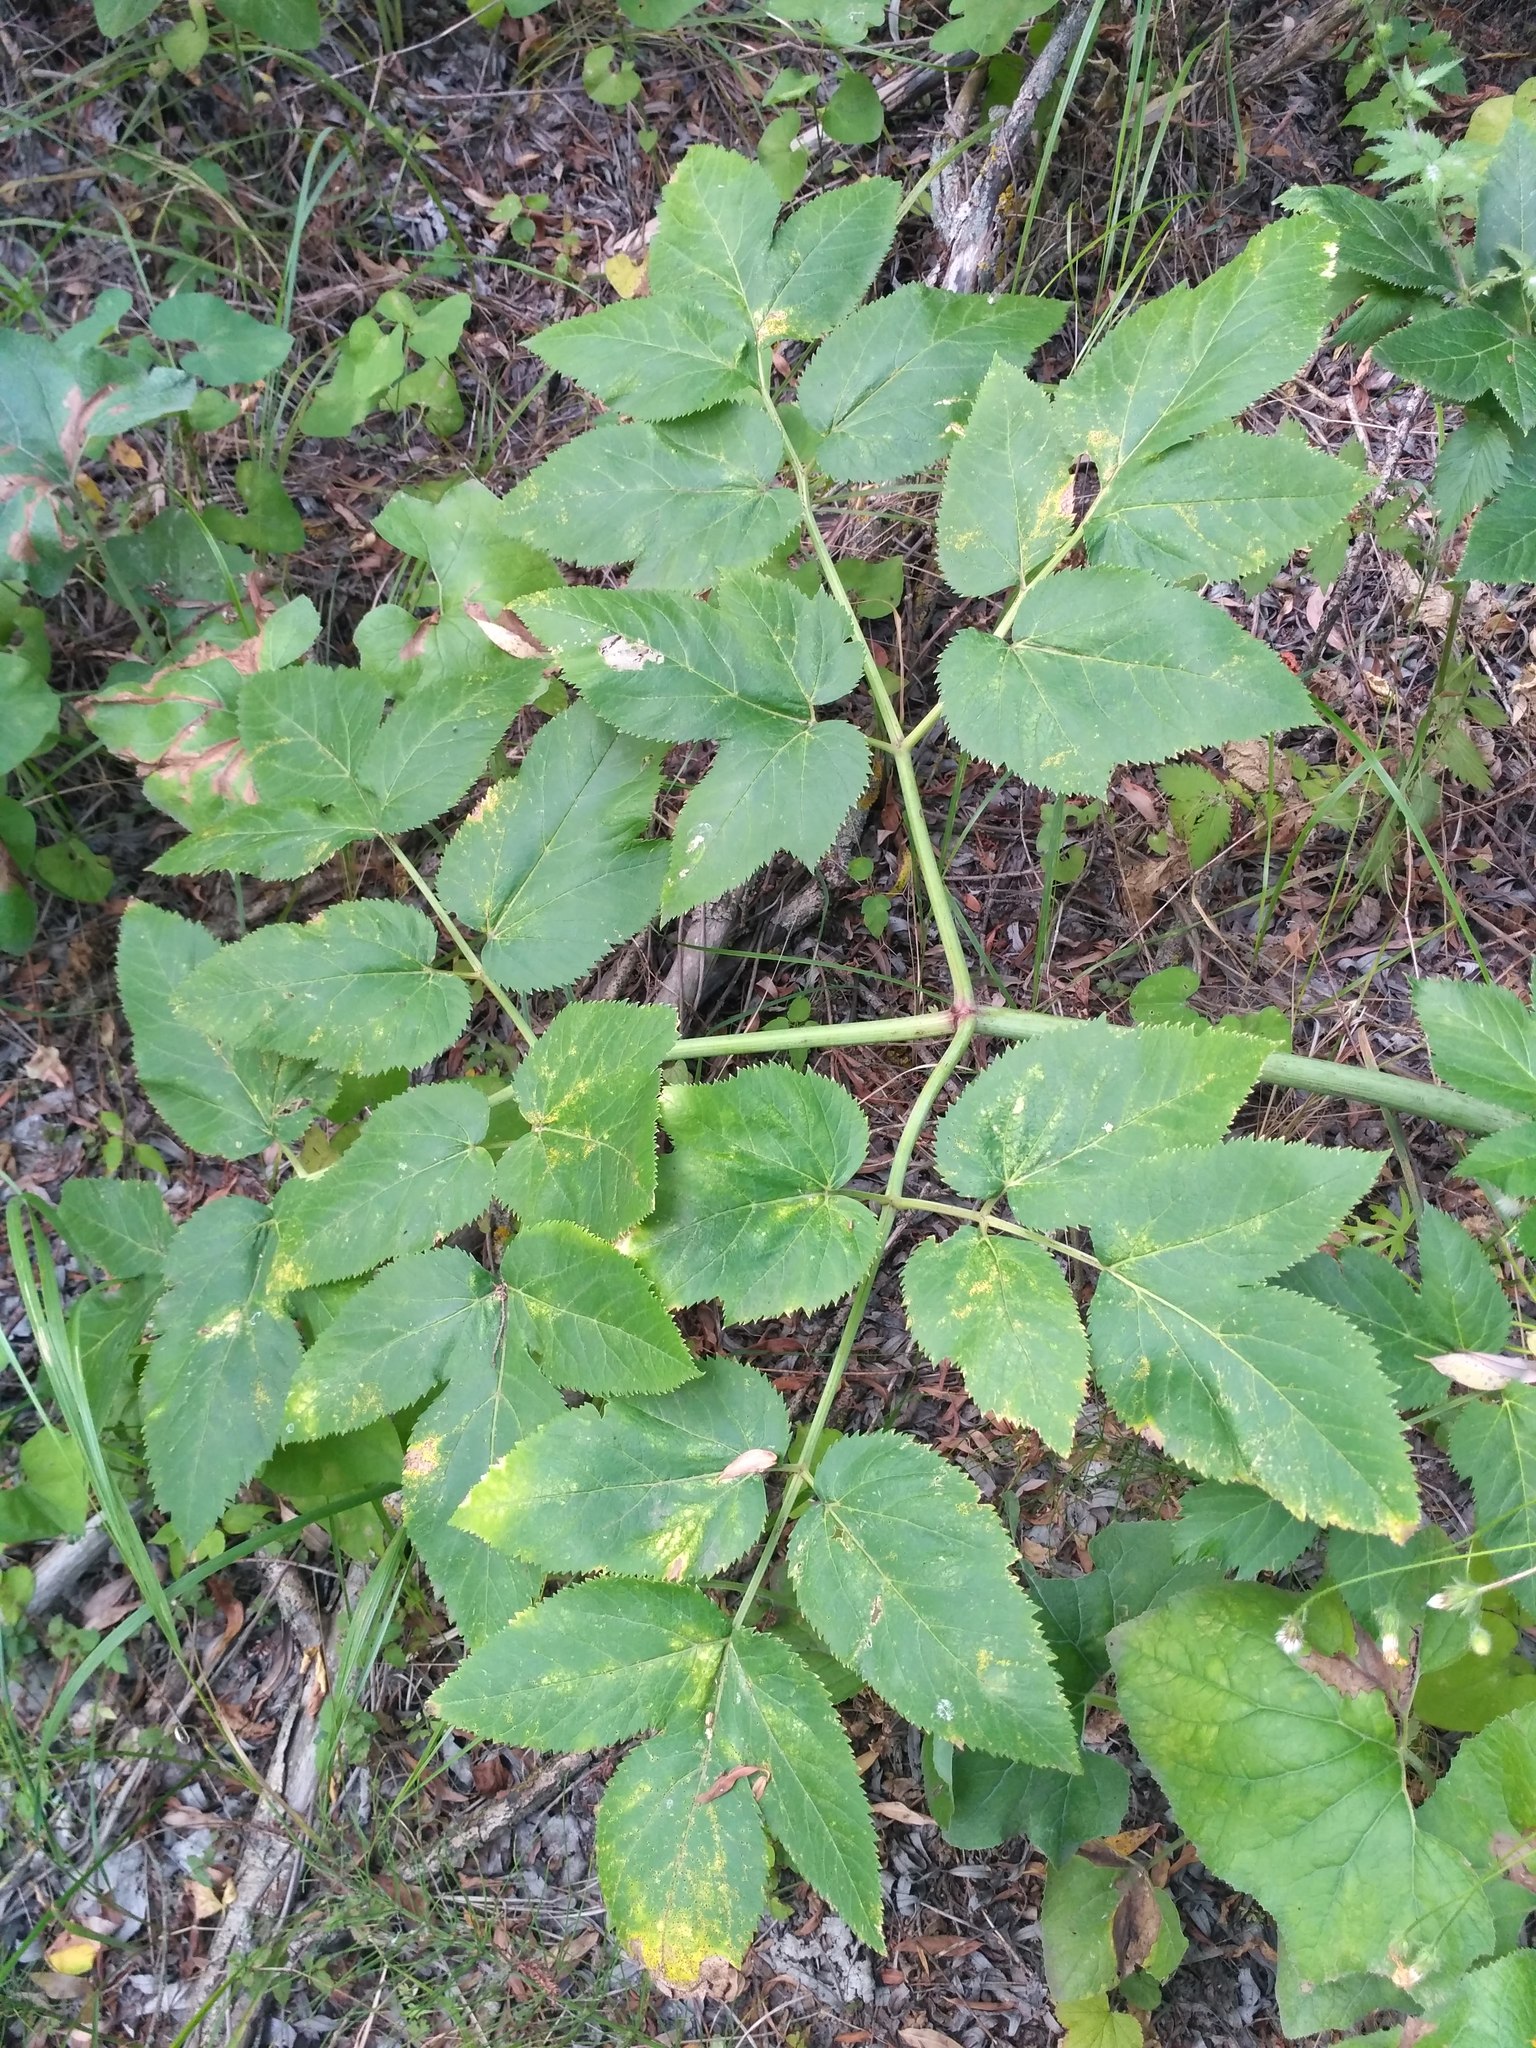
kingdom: Plantae
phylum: Tracheophyta
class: Magnoliopsida
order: Apiales
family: Apiaceae
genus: Angelica
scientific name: Angelica archangelica
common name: Garden angelica
